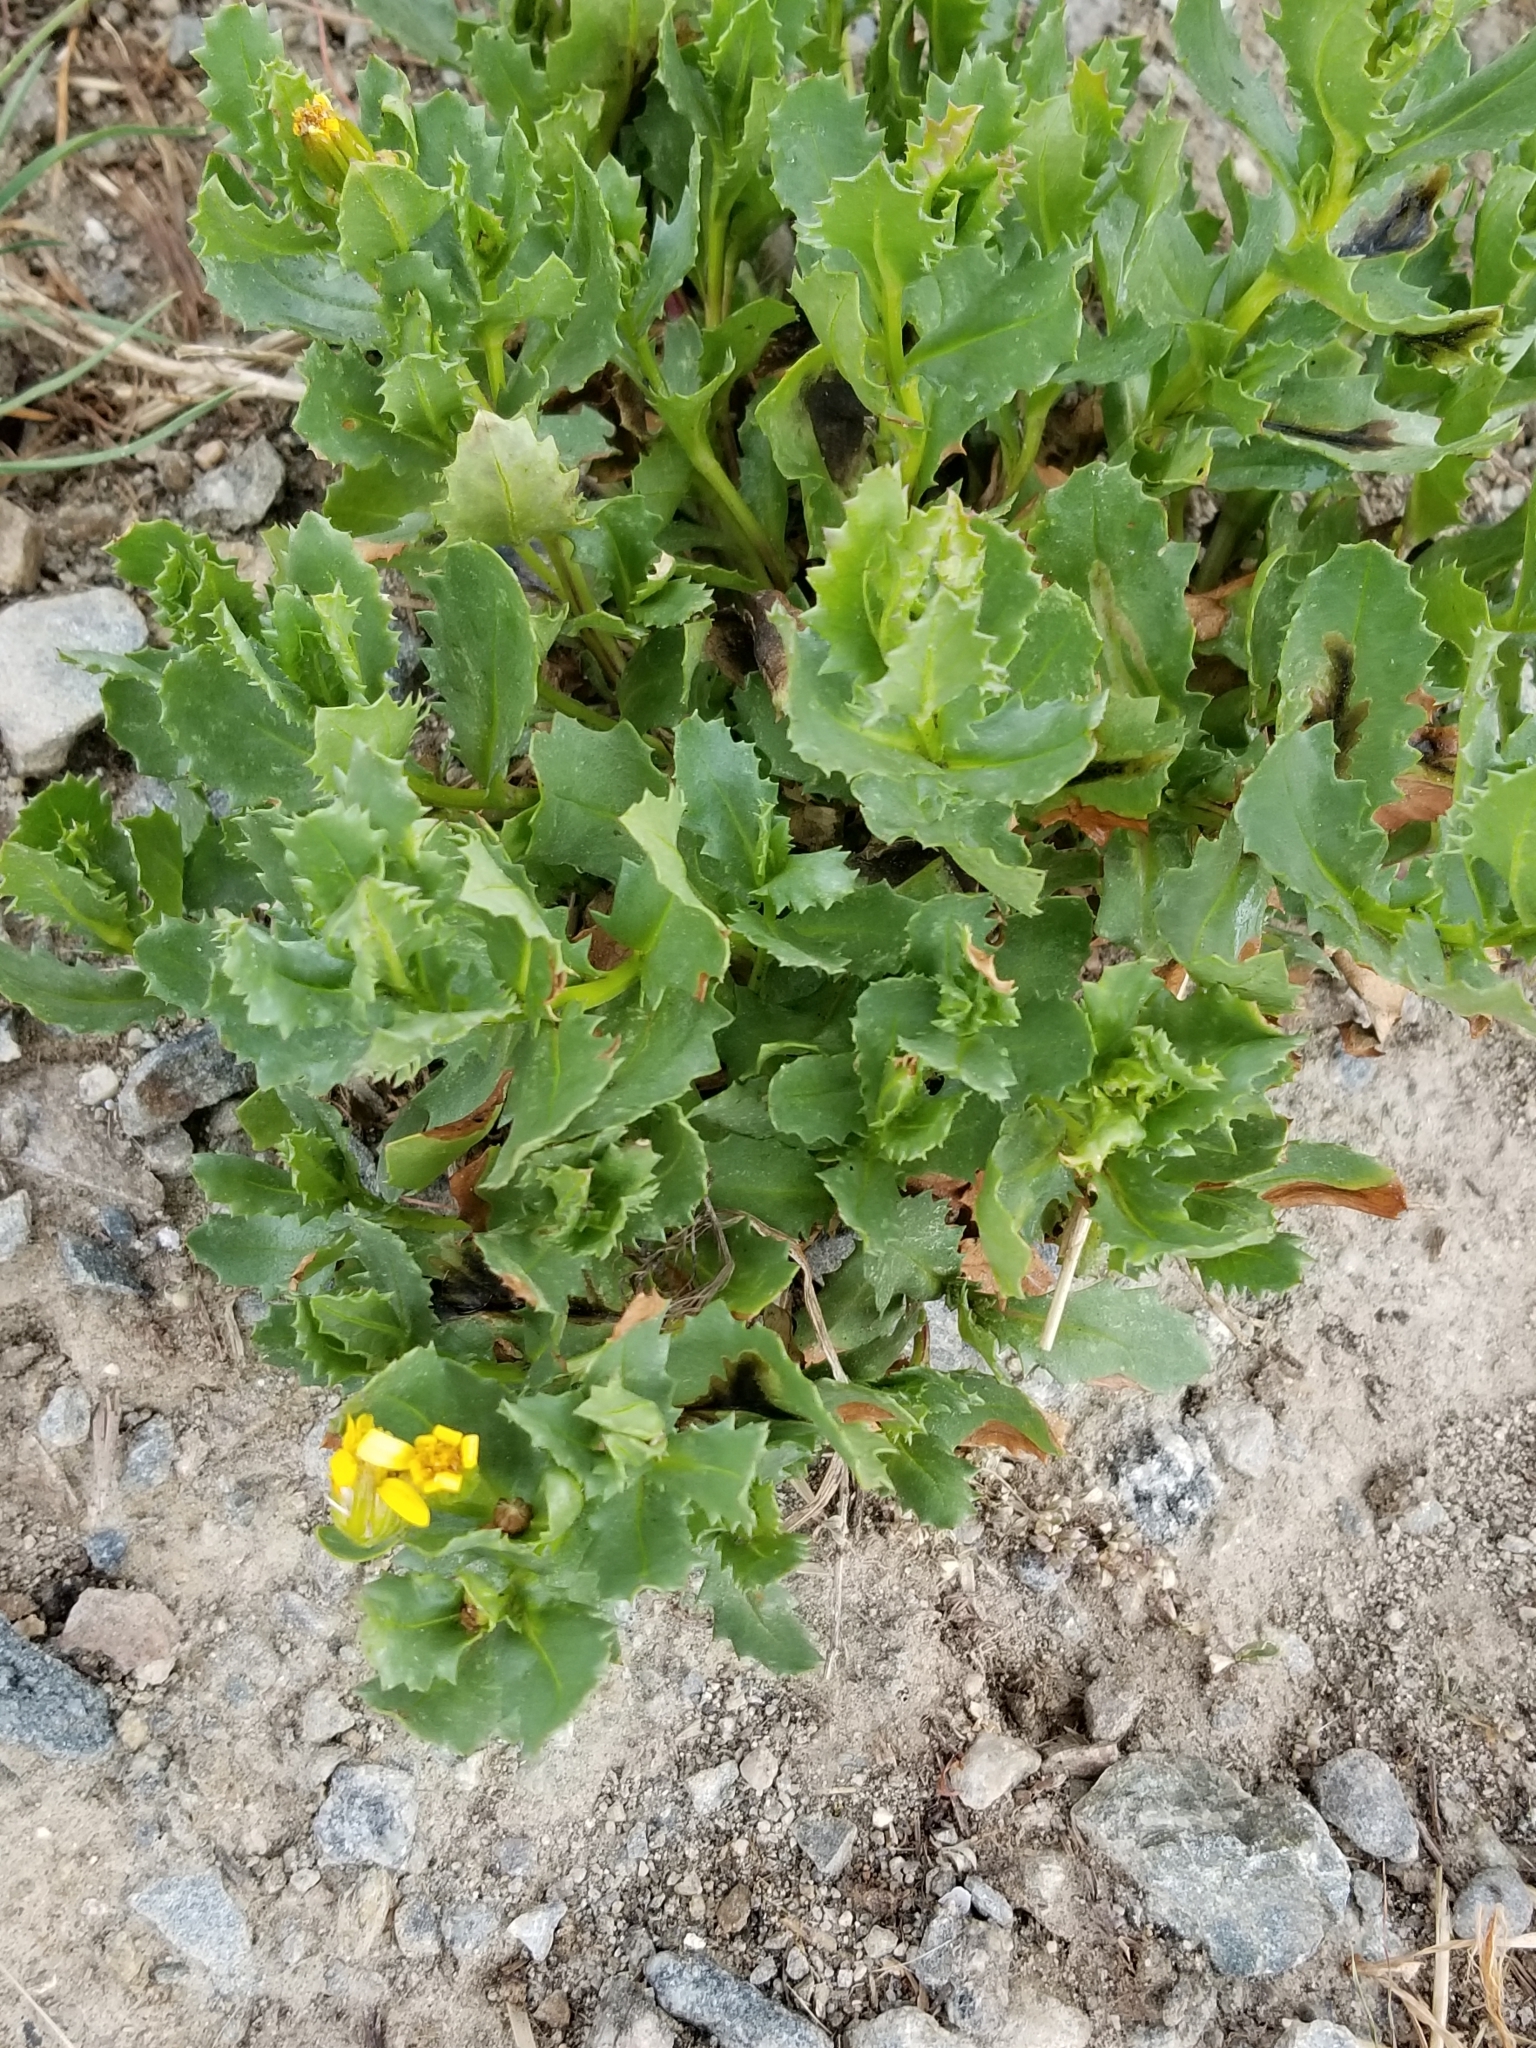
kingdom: Plantae
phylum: Tracheophyta
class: Magnoliopsida
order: Asterales
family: Asteraceae
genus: Senecio
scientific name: Senecio fremontii
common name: Fremont's groundsel
